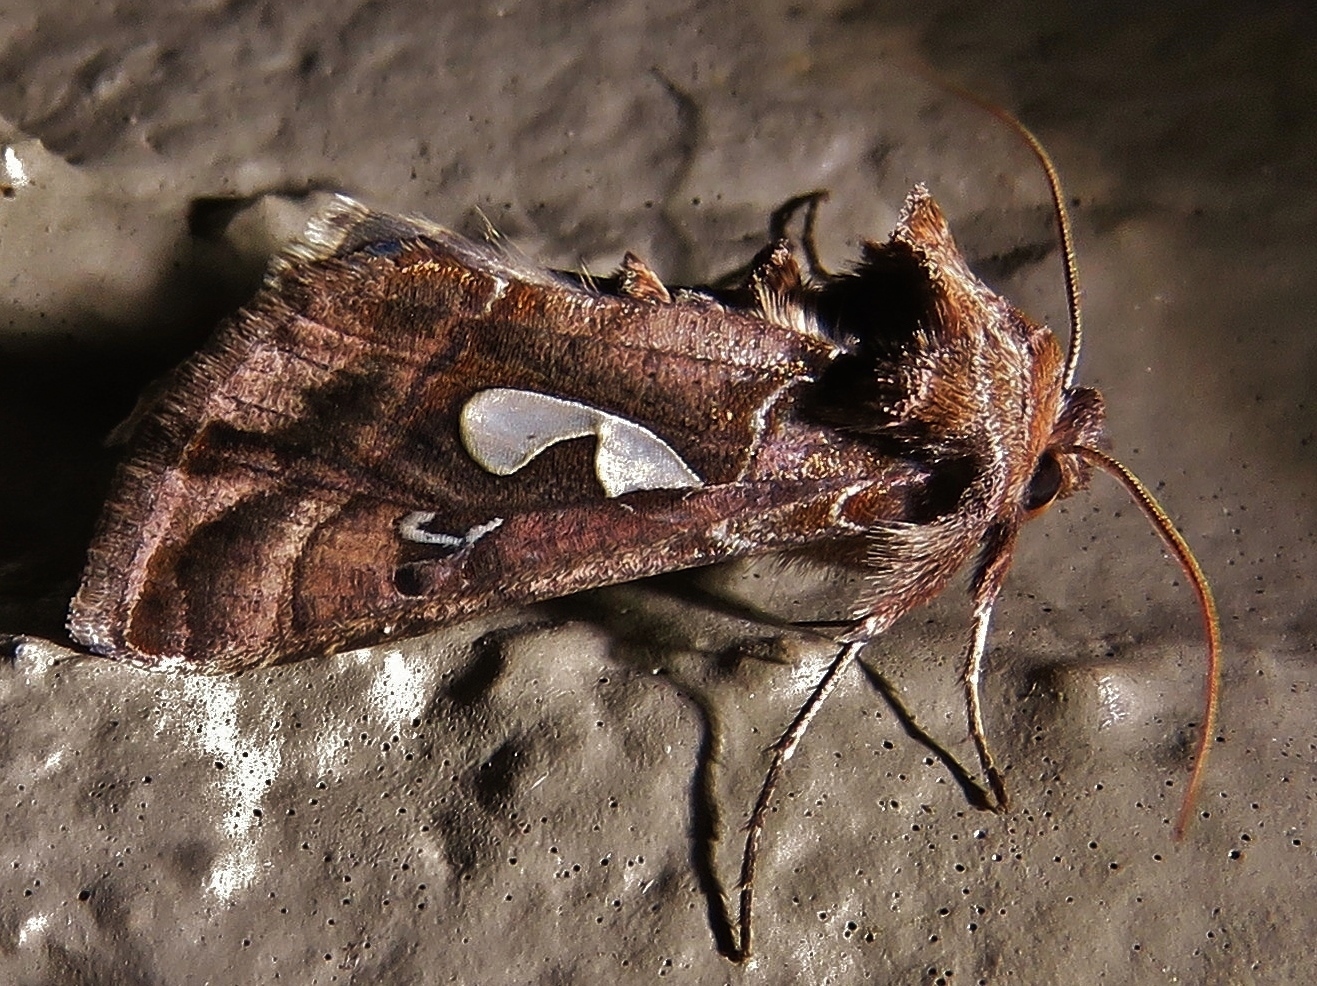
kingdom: Animalia
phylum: Arthropoda
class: Insecta
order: Lepidoptera
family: Noctuidae
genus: Megalographa
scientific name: Megalographa biloba
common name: Cutworm
